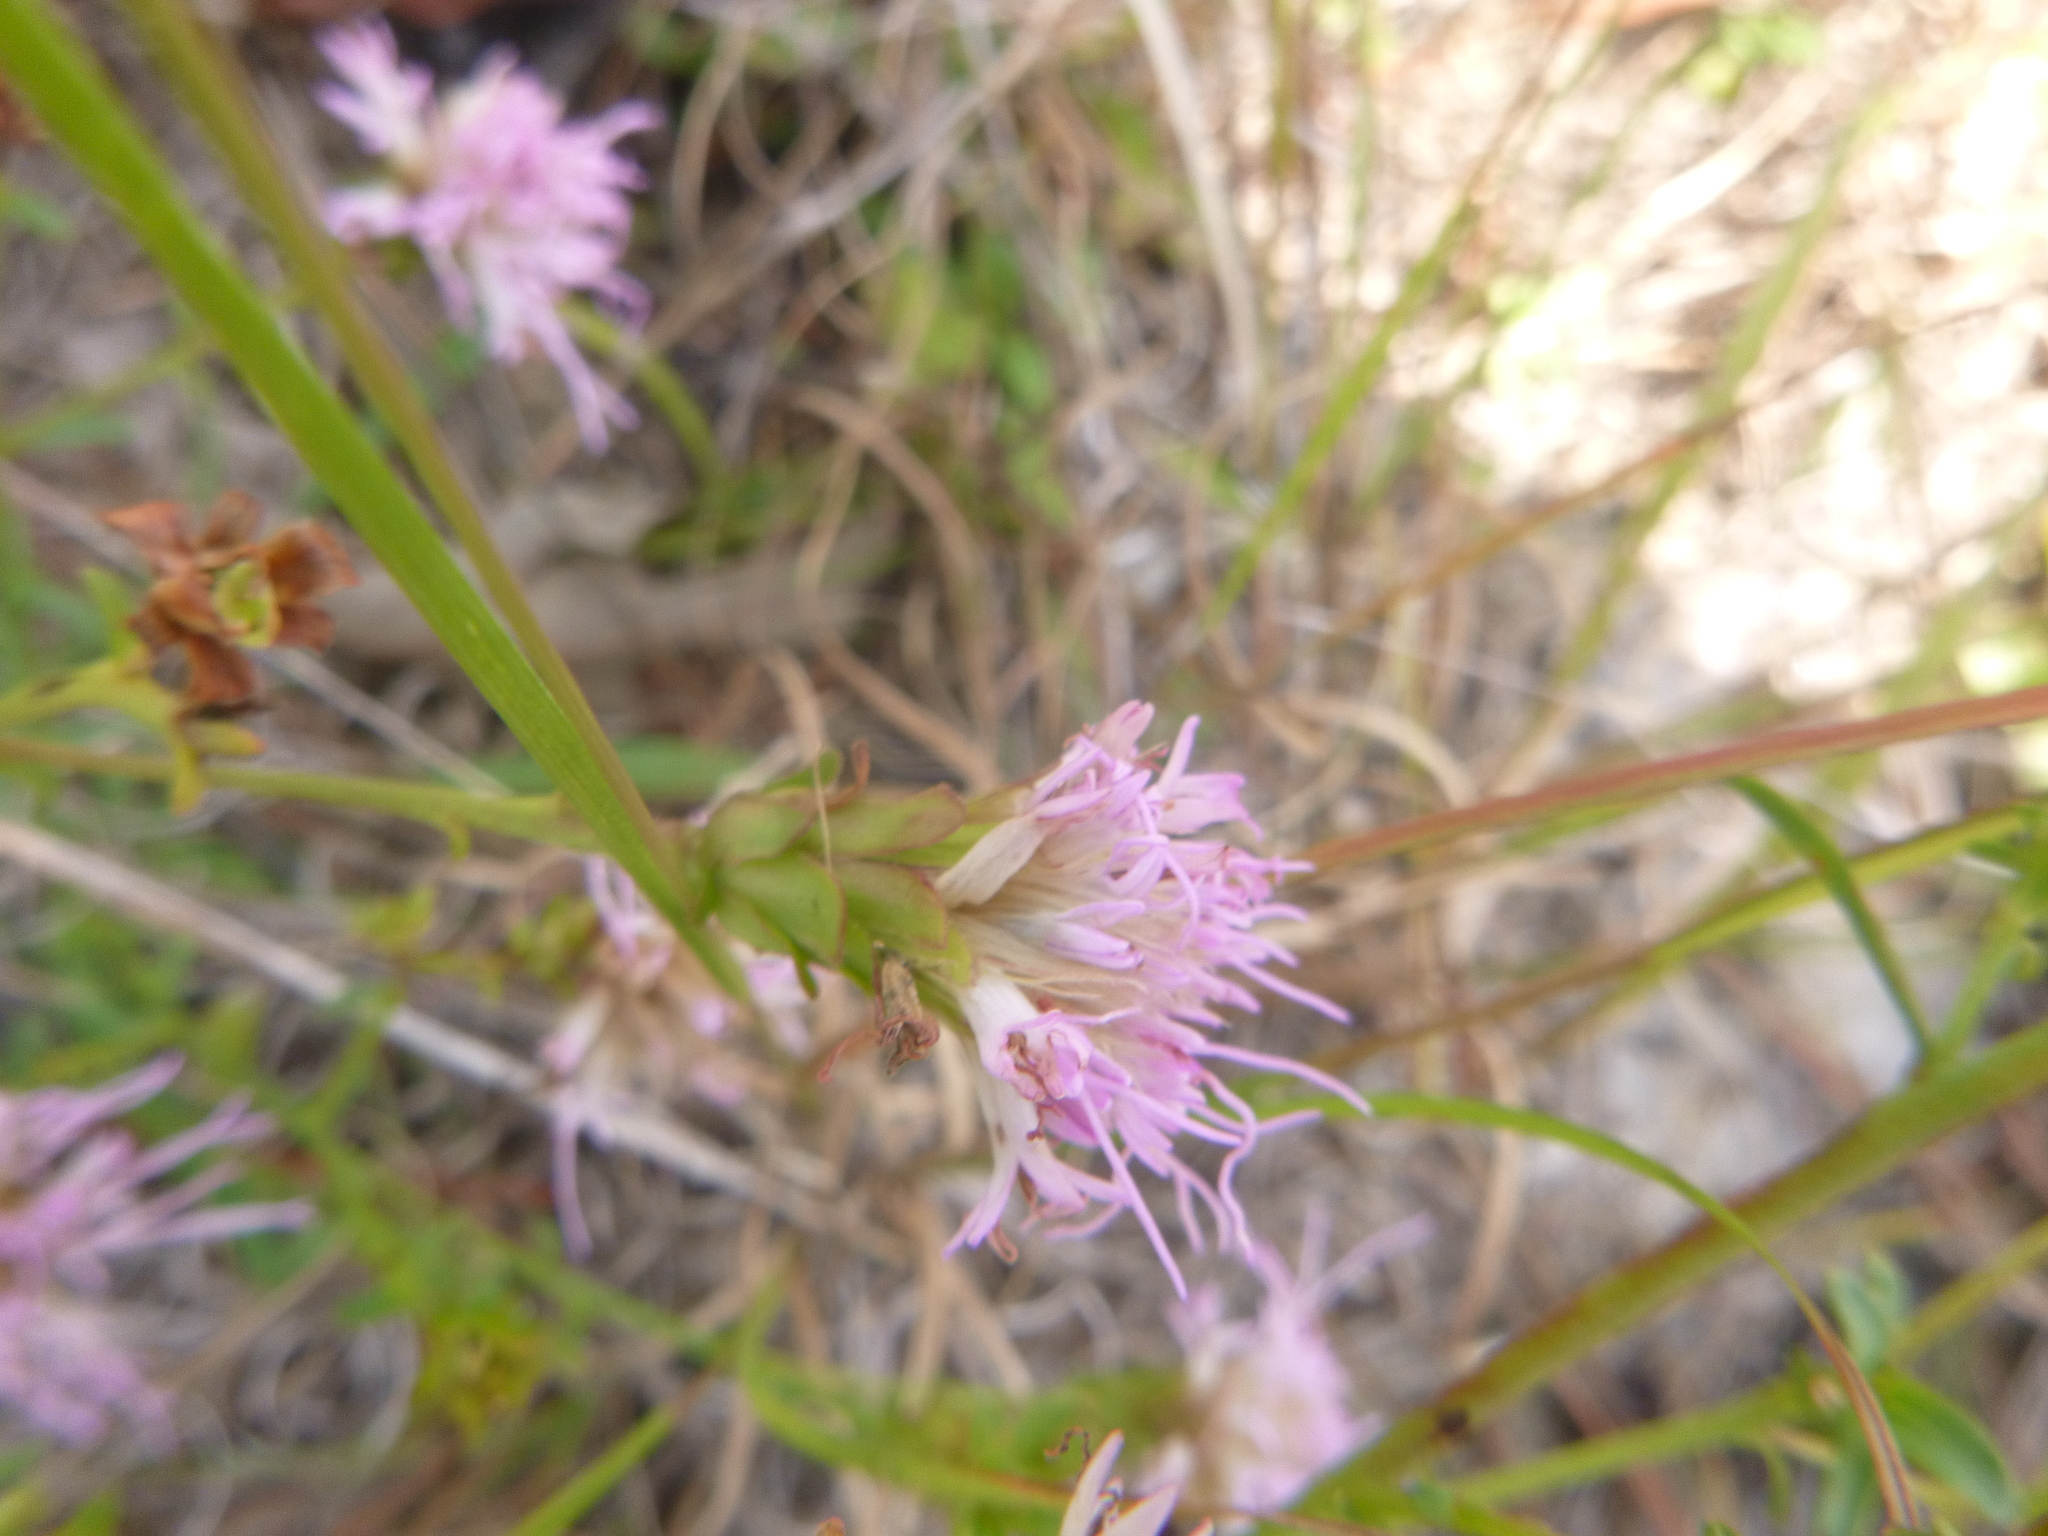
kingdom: Plantae
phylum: Tracheophyta
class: Magnoliopsida
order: Asterales
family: Asteraceae
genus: Carphephorus
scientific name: Carphephorus bellidifolius
